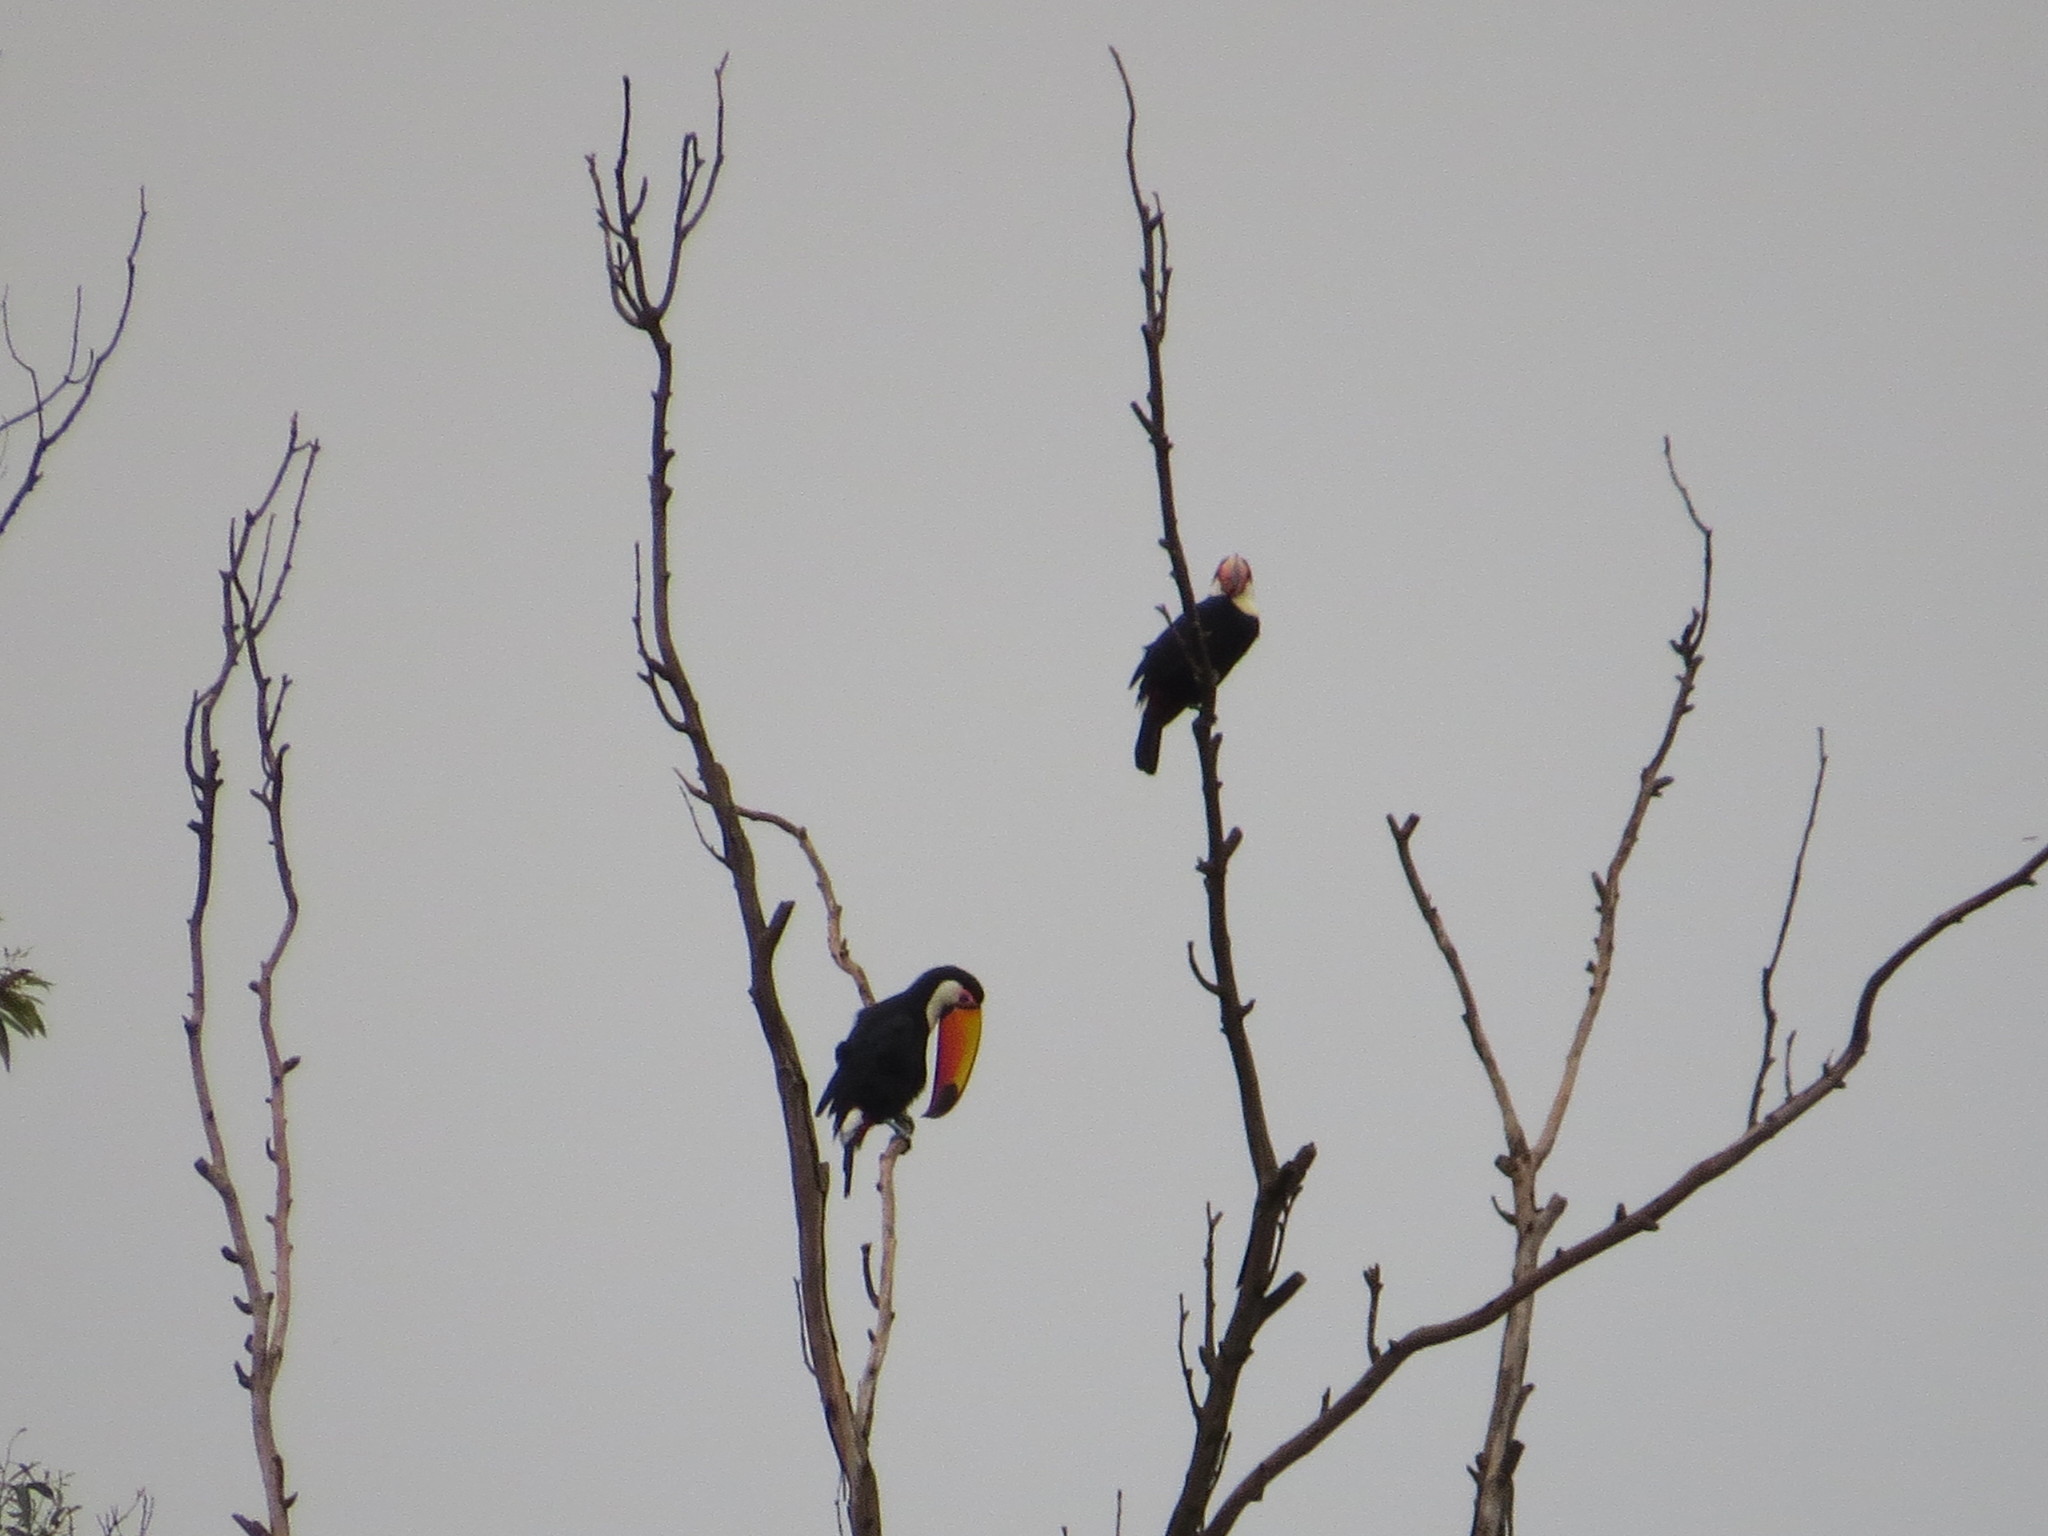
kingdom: Animalia
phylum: Chordata
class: Aves
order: Piciformes
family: Ramphastidae
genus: Ramphastos
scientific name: Ramphastos toco
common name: Toco toucan
